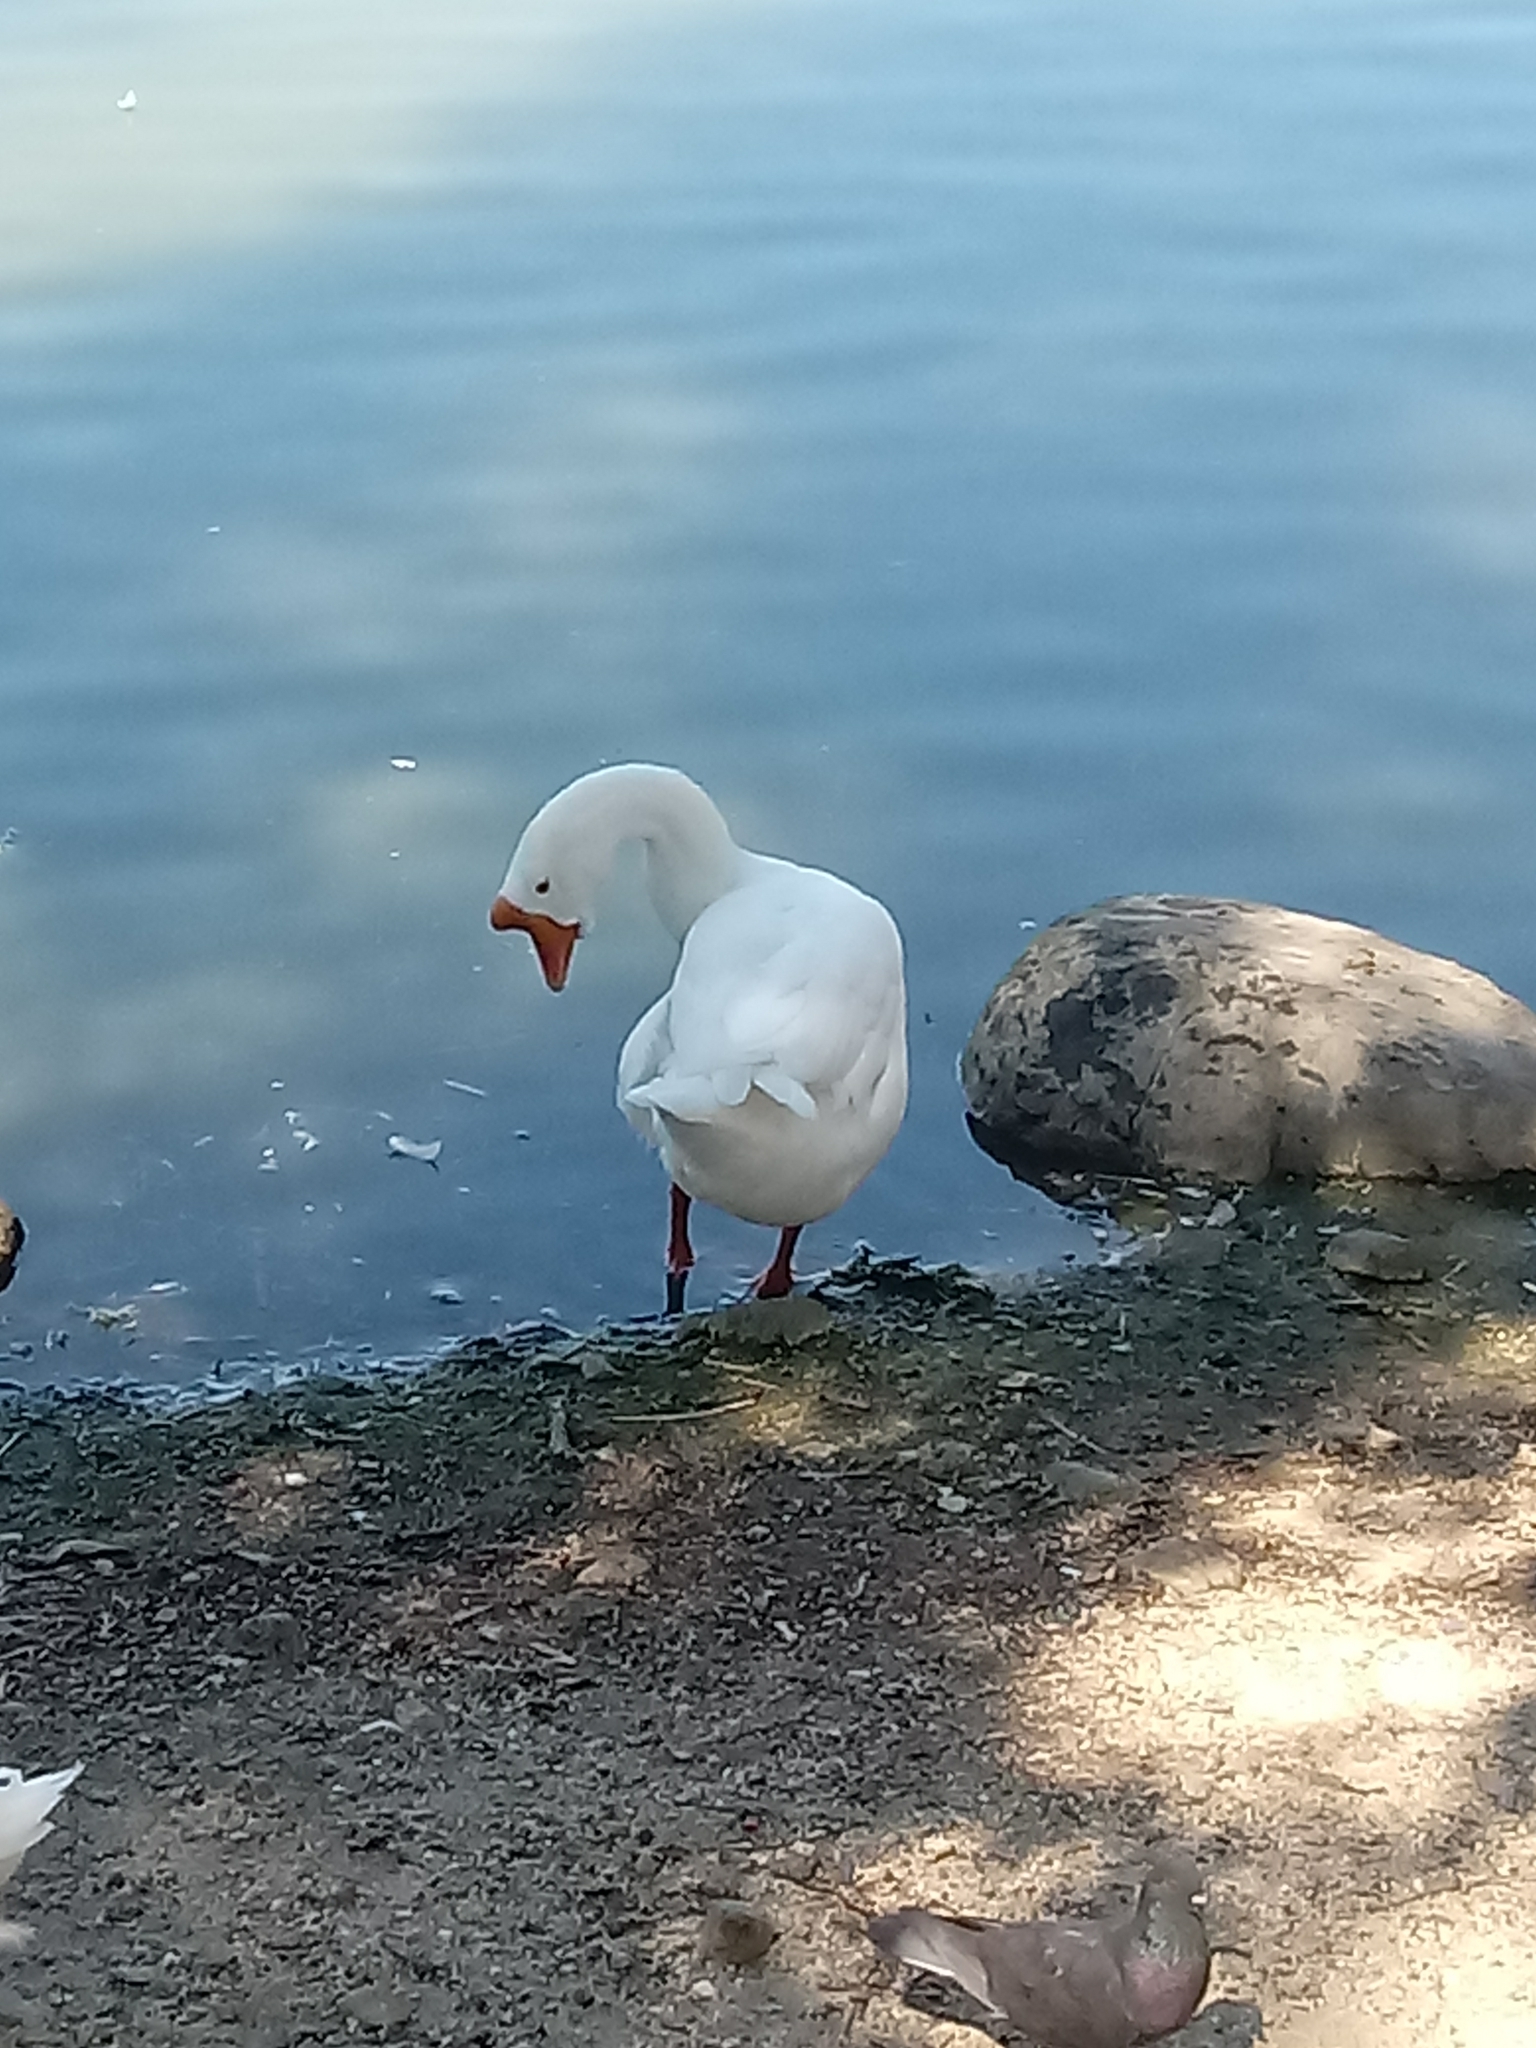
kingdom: Animalia
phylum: Chordata
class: Aves
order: Anseriformes
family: Anatidae
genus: Anser
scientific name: Anser cygnoides
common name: Swan goose
